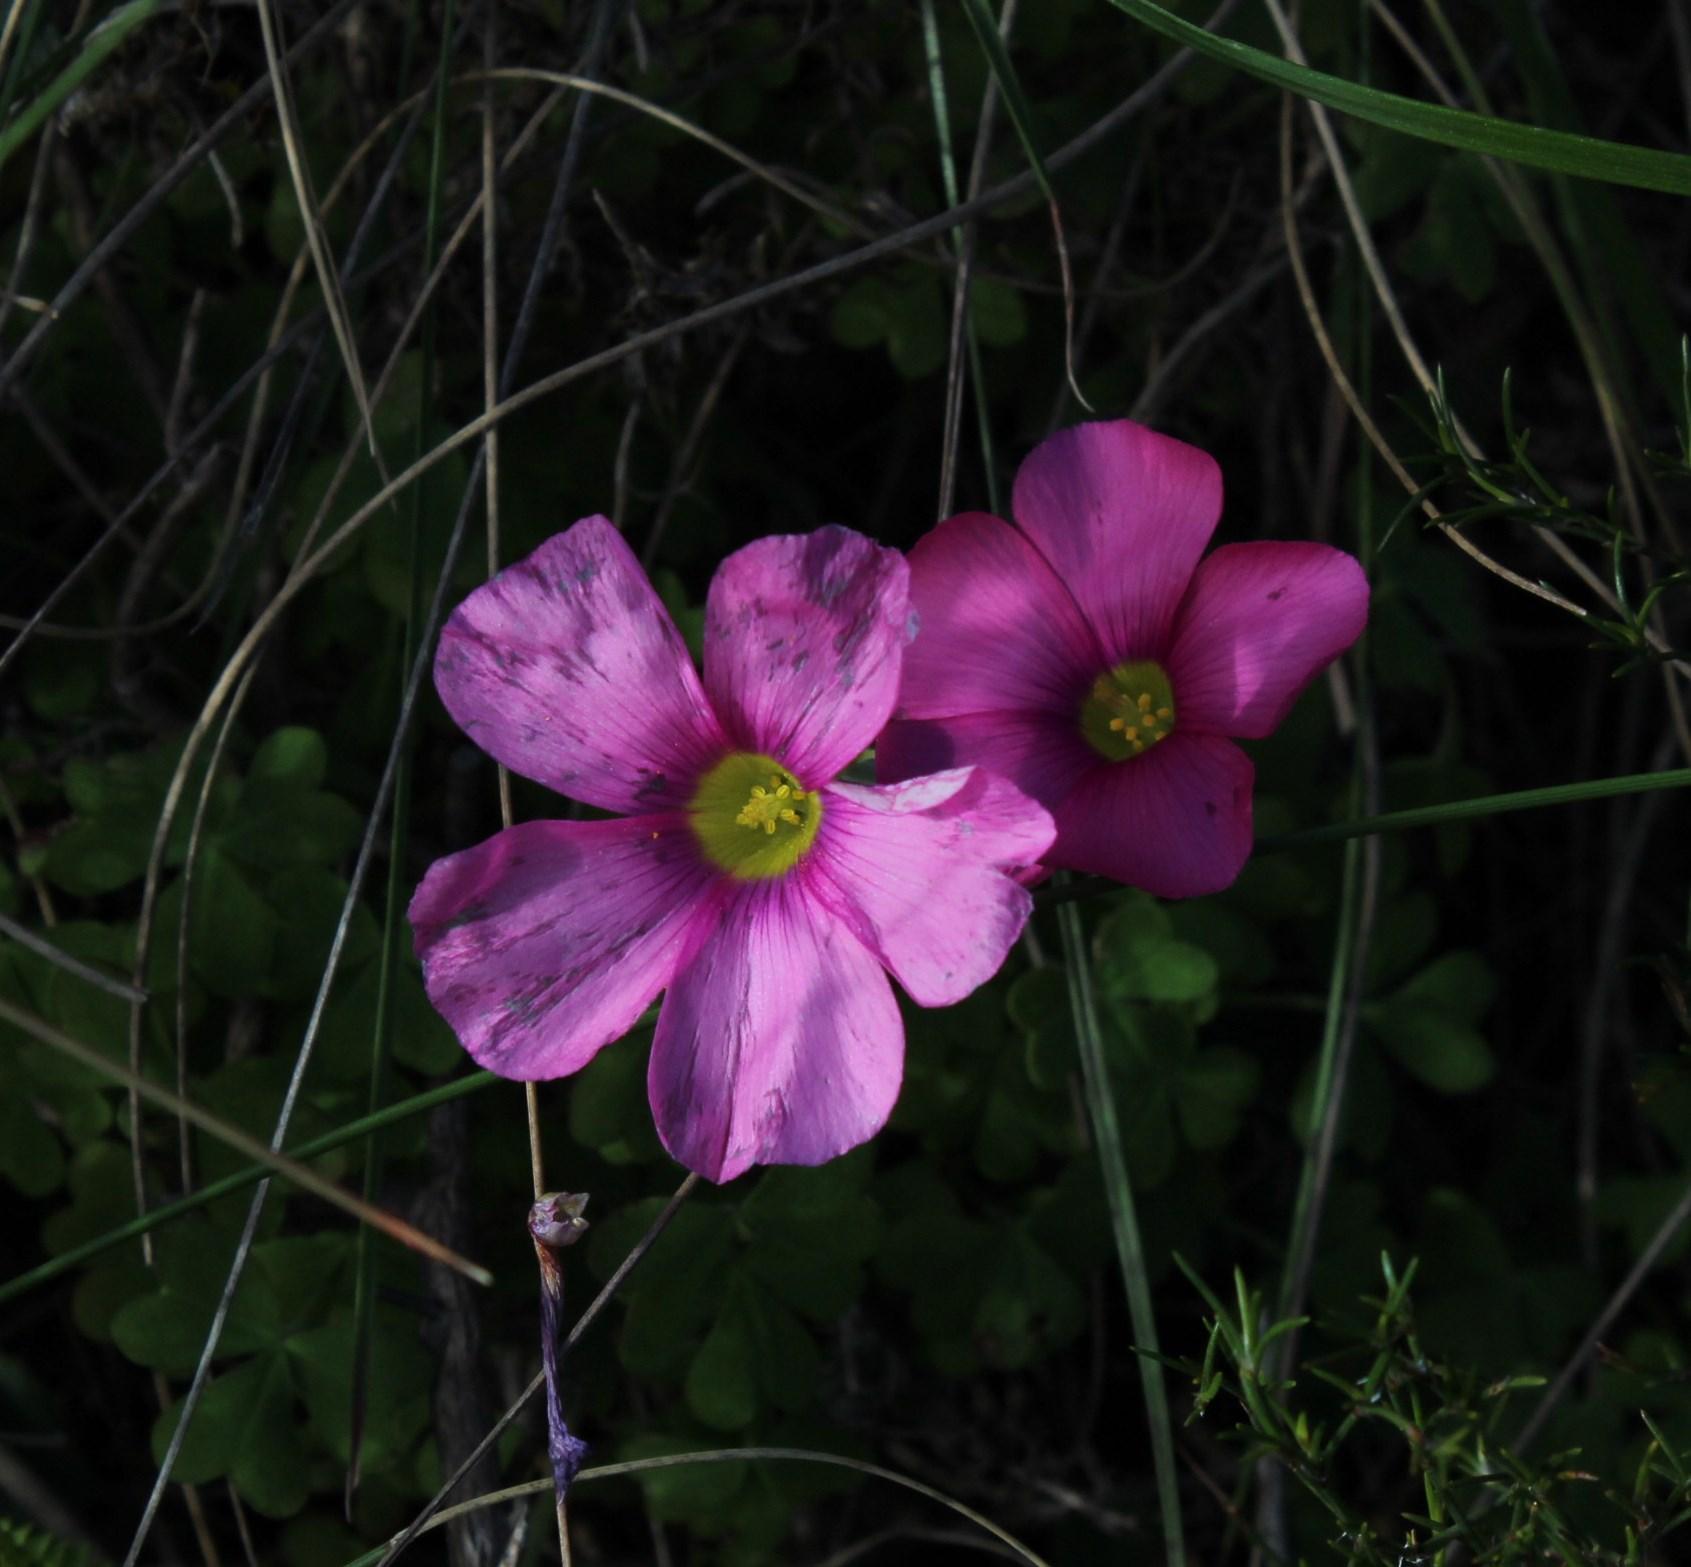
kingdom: Plantae
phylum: Tracheophyta
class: Magnoliopsida
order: Oxalidales
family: Oxalidaceae
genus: Oxalis
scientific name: Oxalis obtusa
